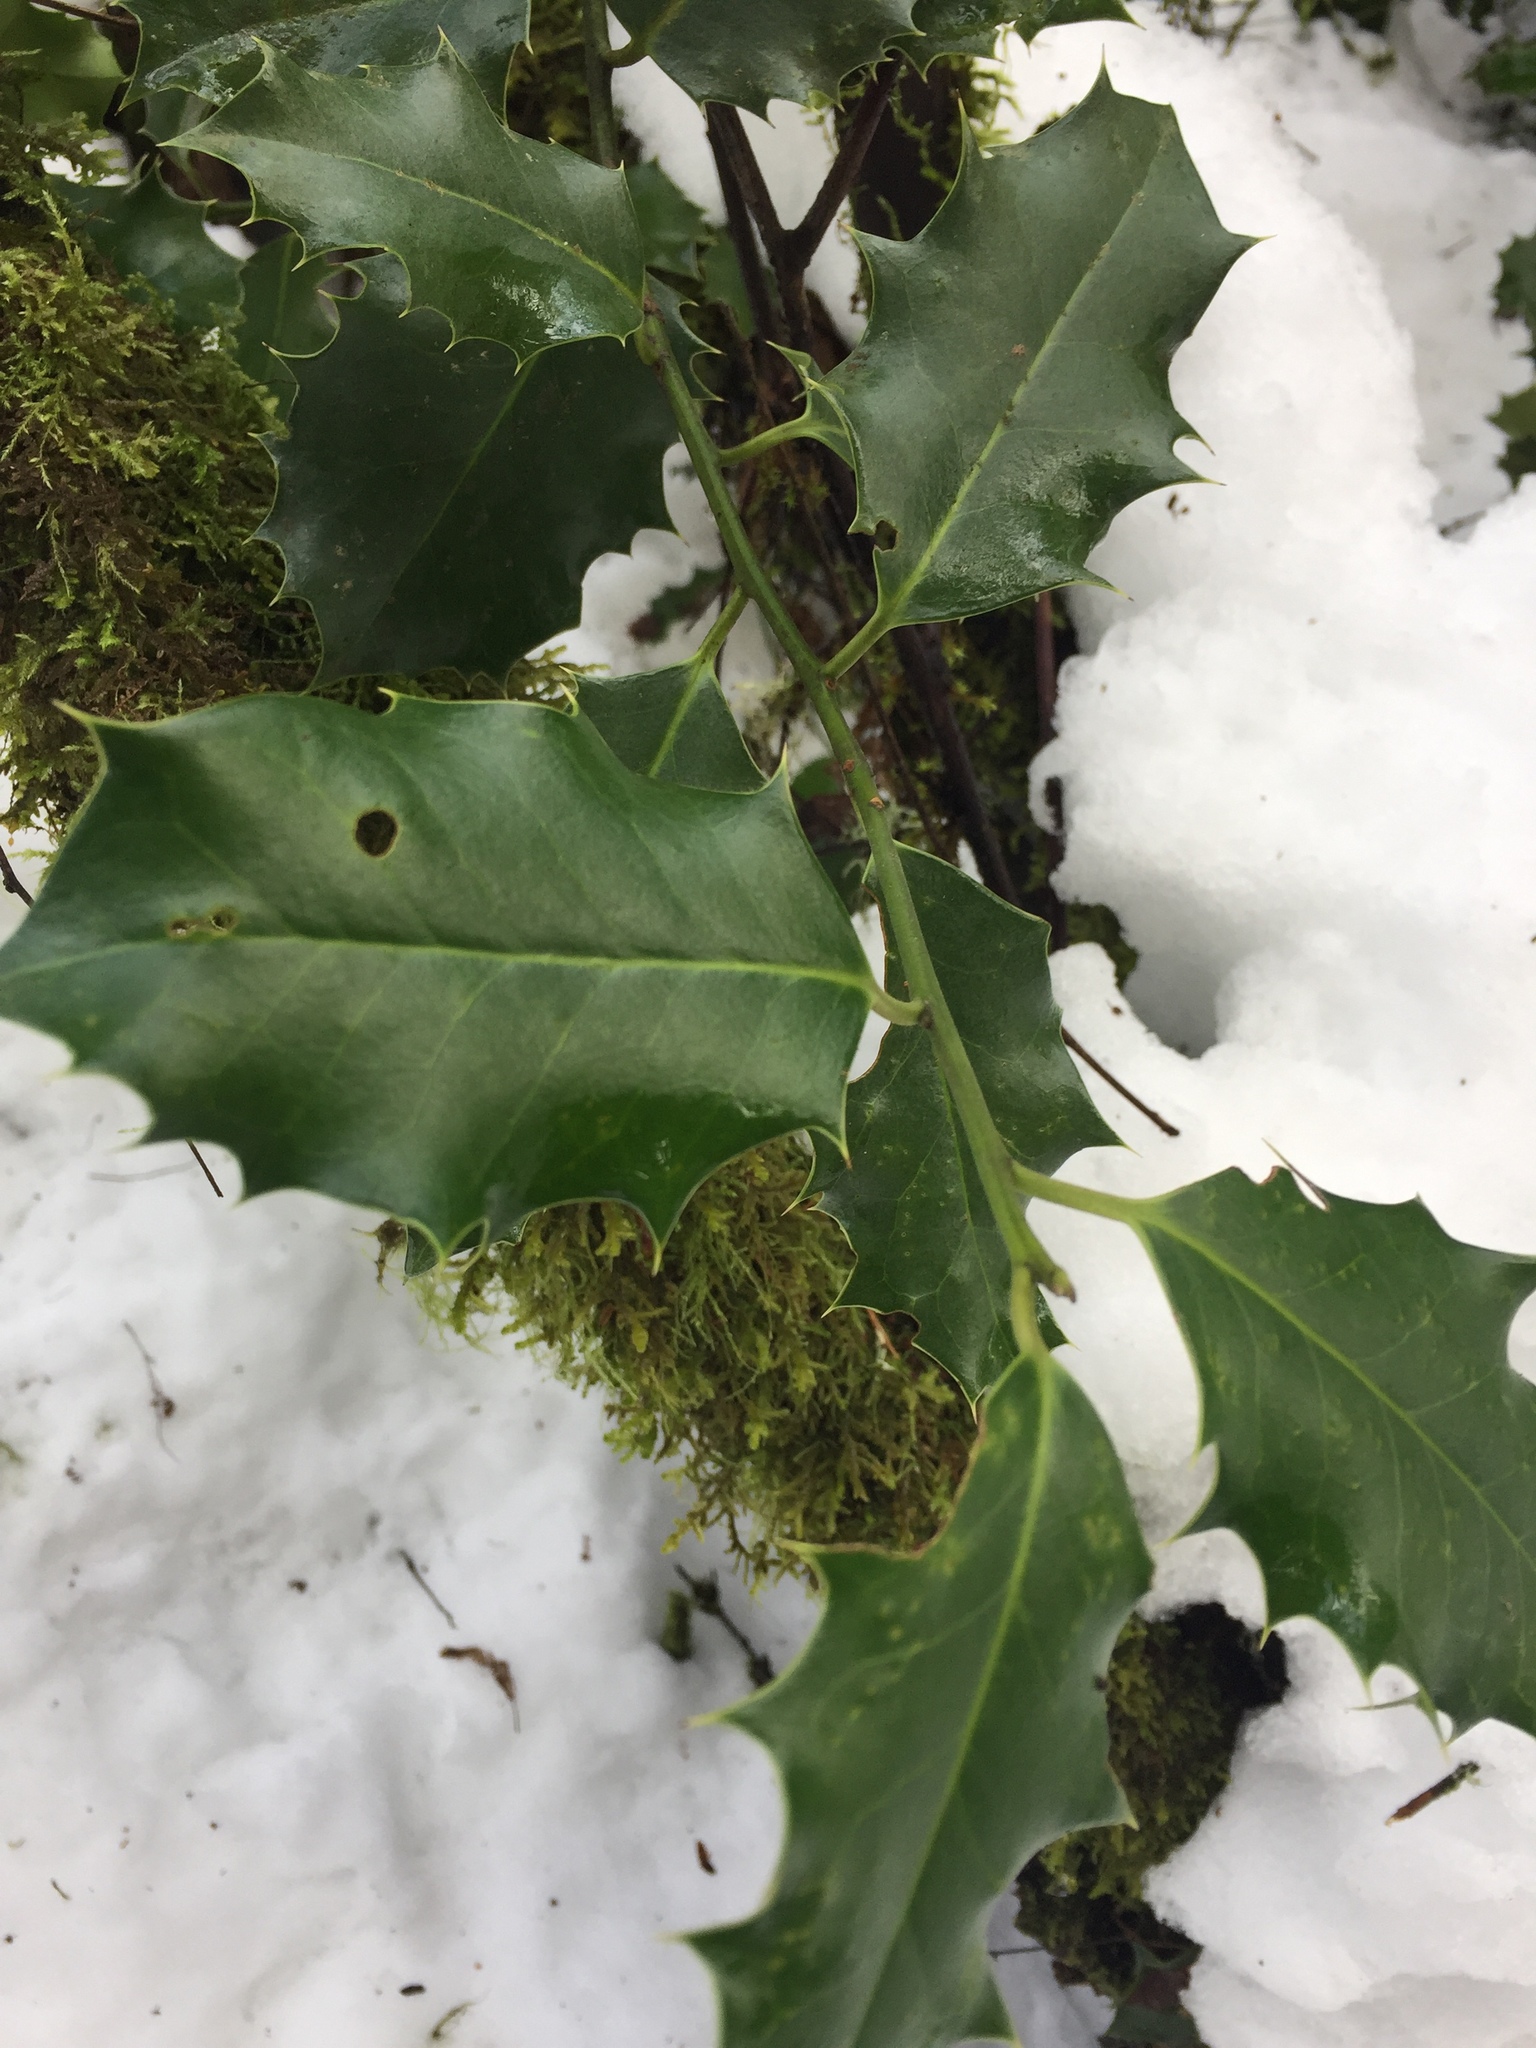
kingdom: Plantae
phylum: Tracheophyta
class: Magnoliopsida
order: Aquifoliales
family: Aquifoliaceae
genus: Ilex
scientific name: Ilex aquifolium
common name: English holly
